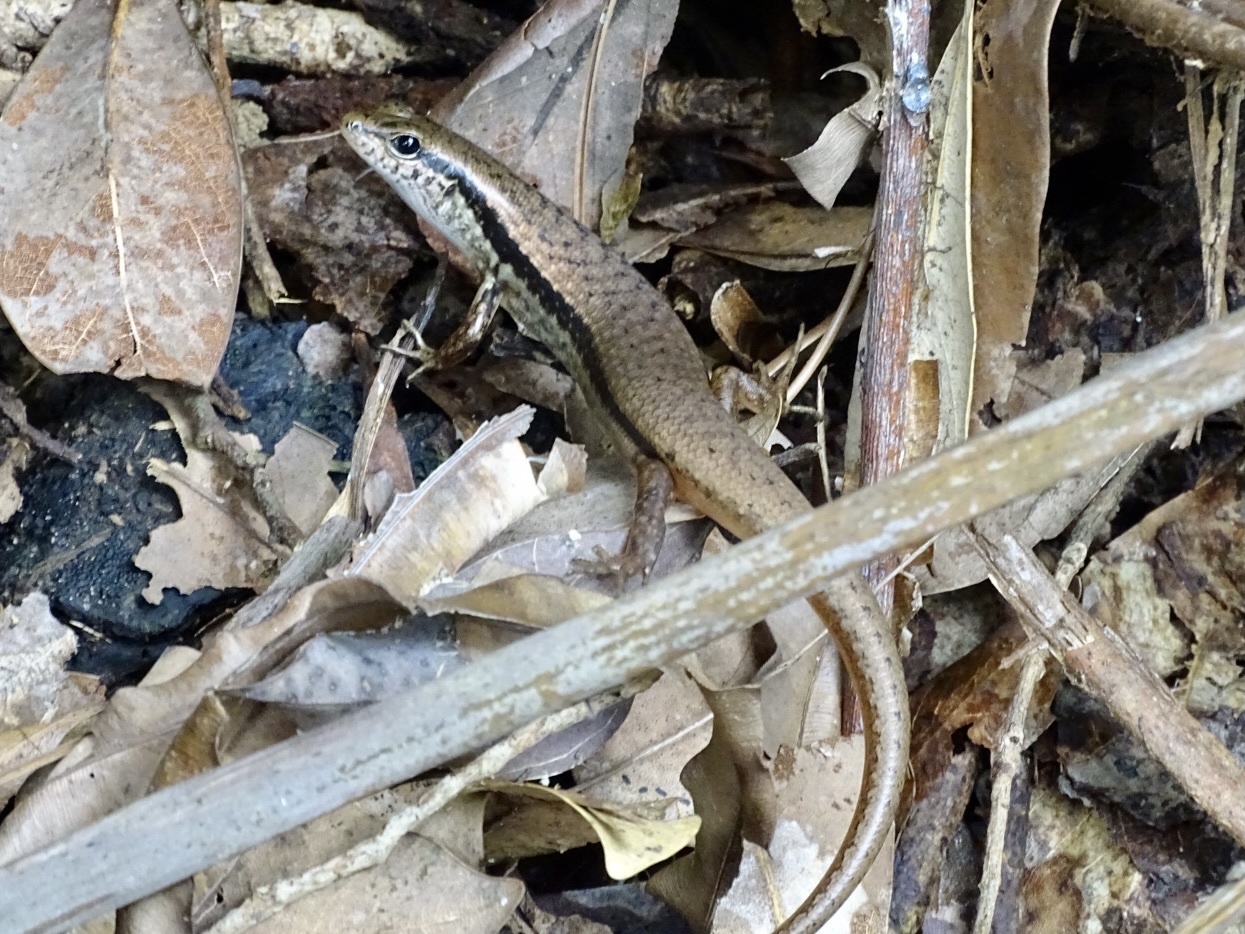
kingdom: Animalia
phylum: Chordata
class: Squamata
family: Scincidae
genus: Sphenomorphus
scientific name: Sphenomorphus indicus
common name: Himalayan forest skink
